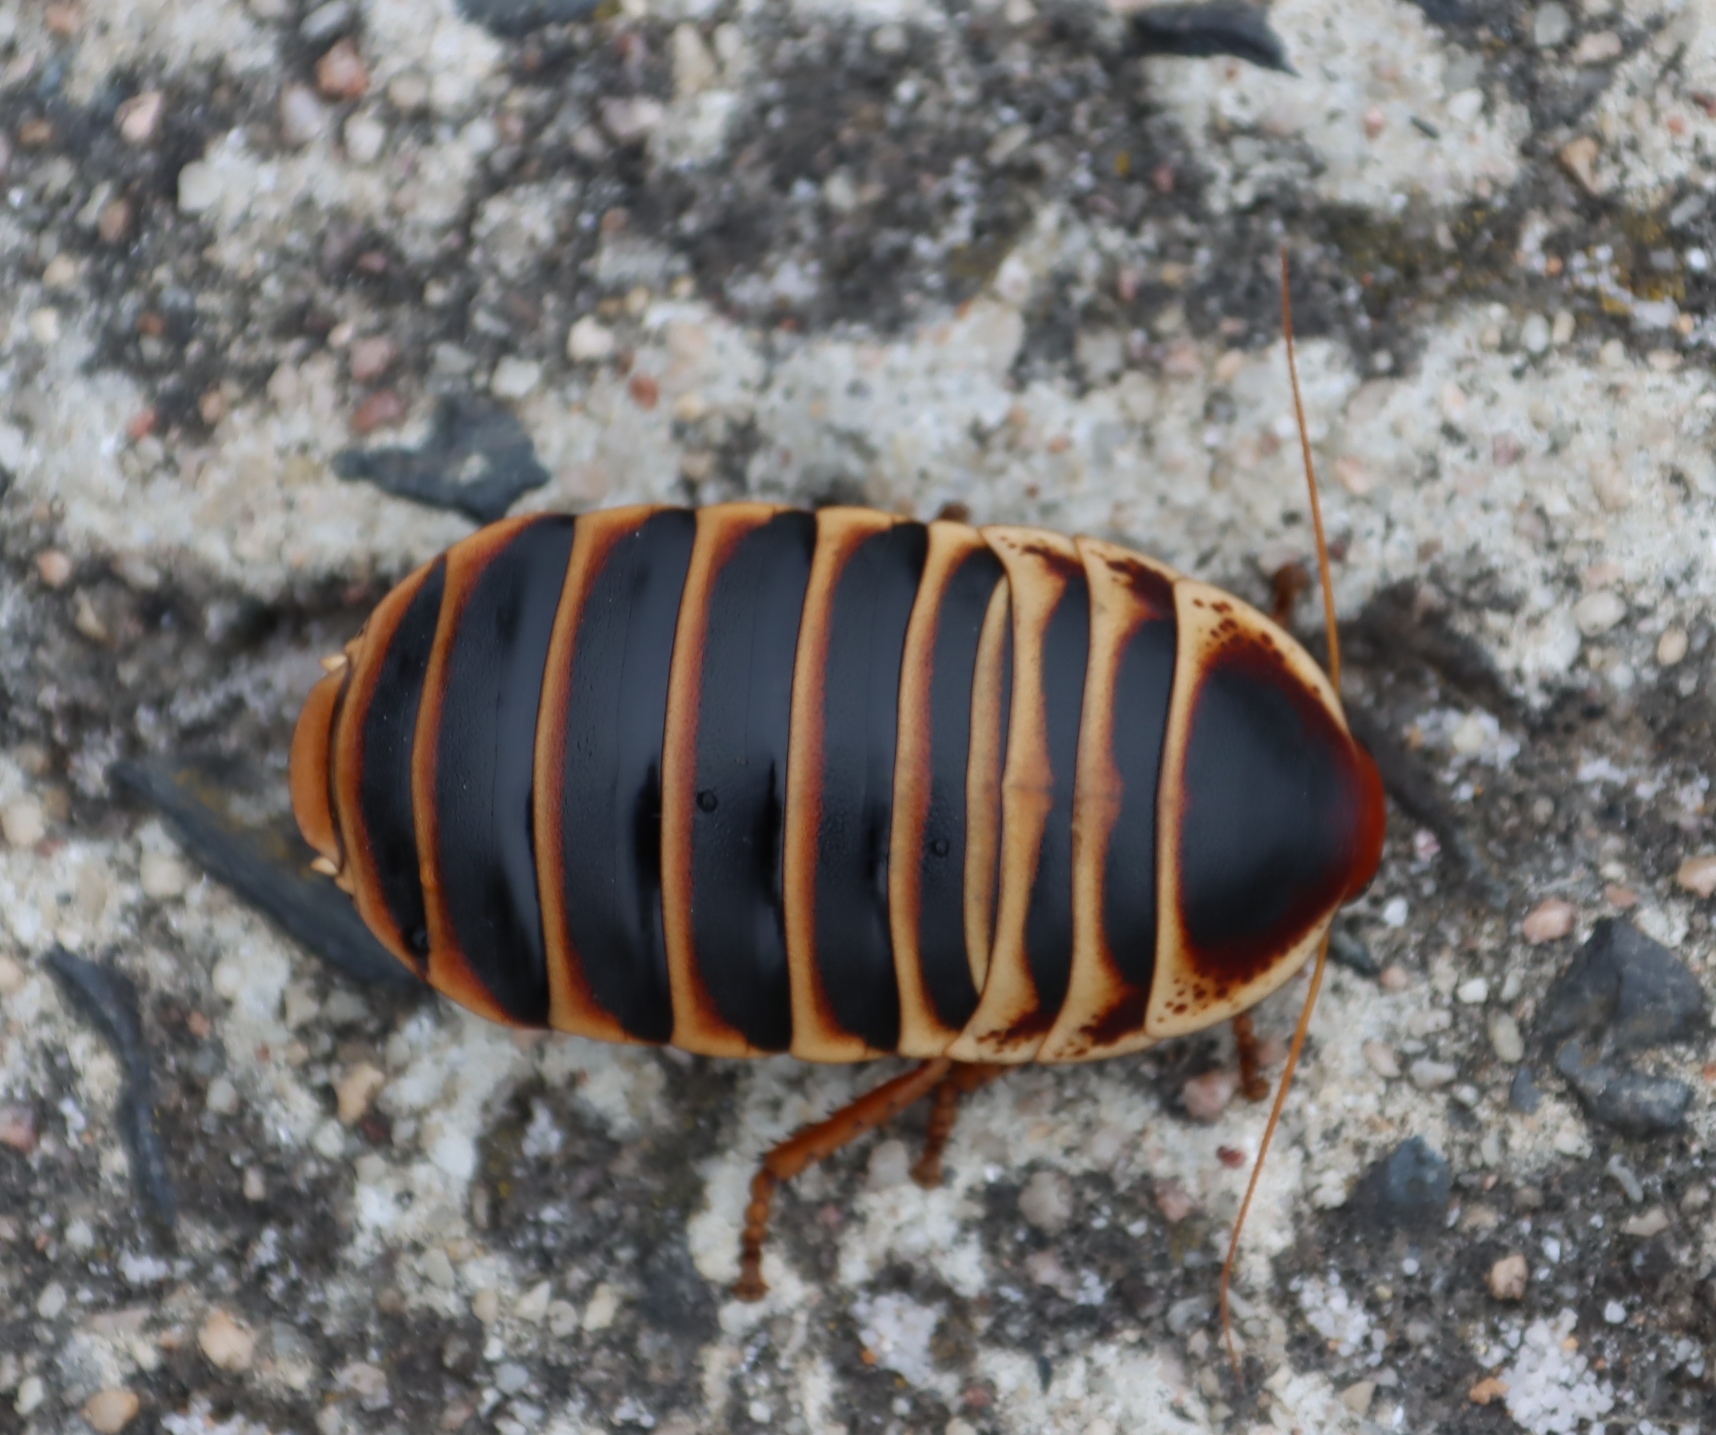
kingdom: Animalia
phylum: Arthropoda
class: Insecta
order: Blattodea
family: Blaberidae
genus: Aptera
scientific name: Aptera fusca
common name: Cape mountain cockroach
